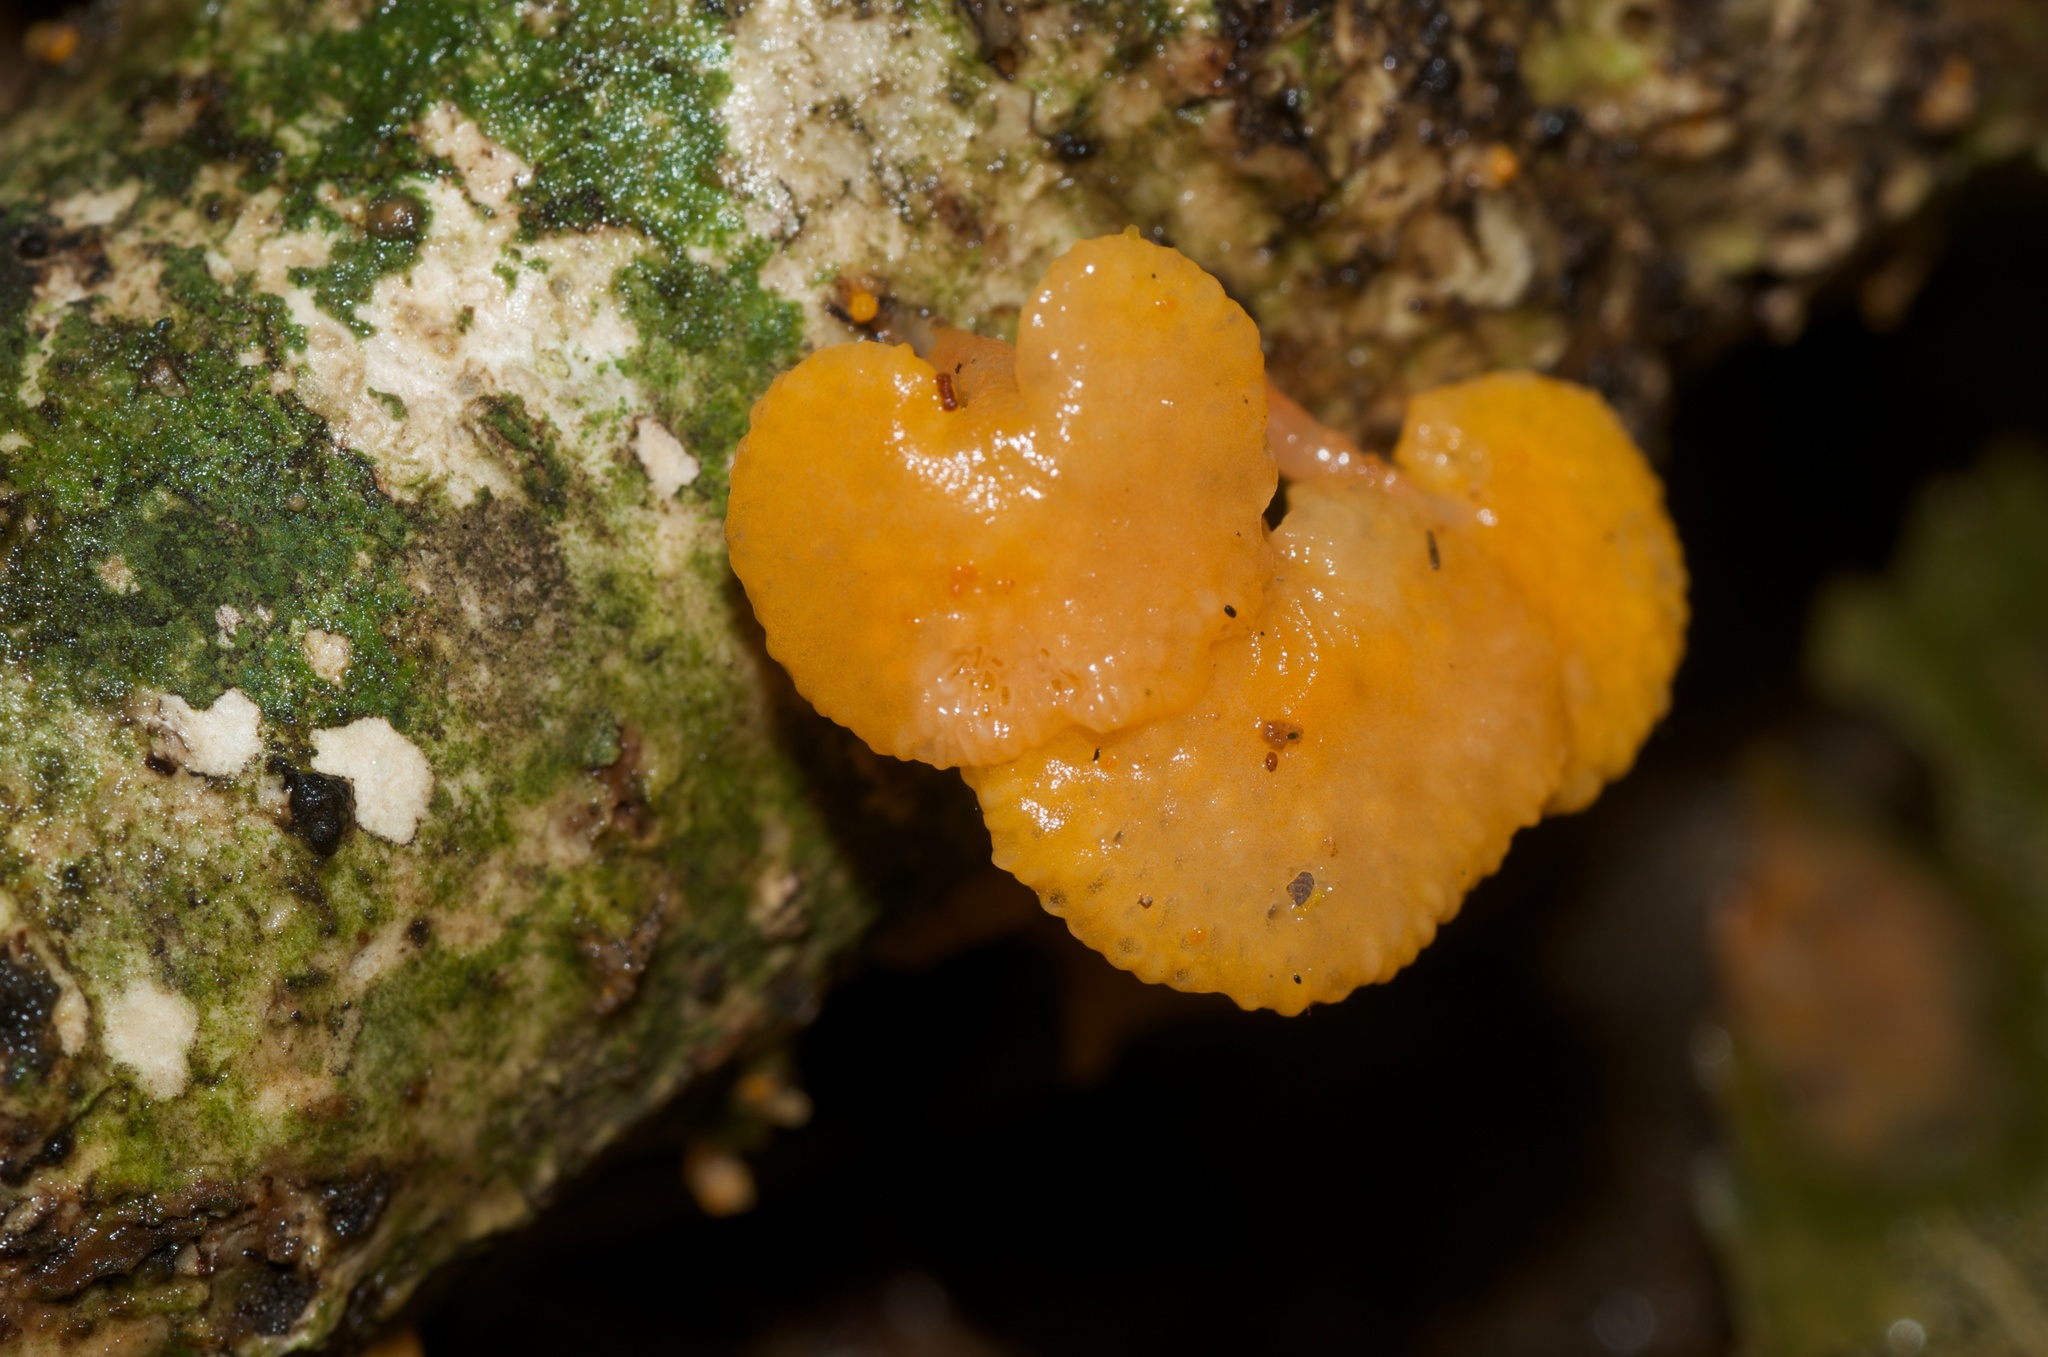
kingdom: Fungi
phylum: Basidiomycota
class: Agaricomycetes
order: Agaricales
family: Mycenaceae
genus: Favolaschia
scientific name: Favolaschia claudopus
